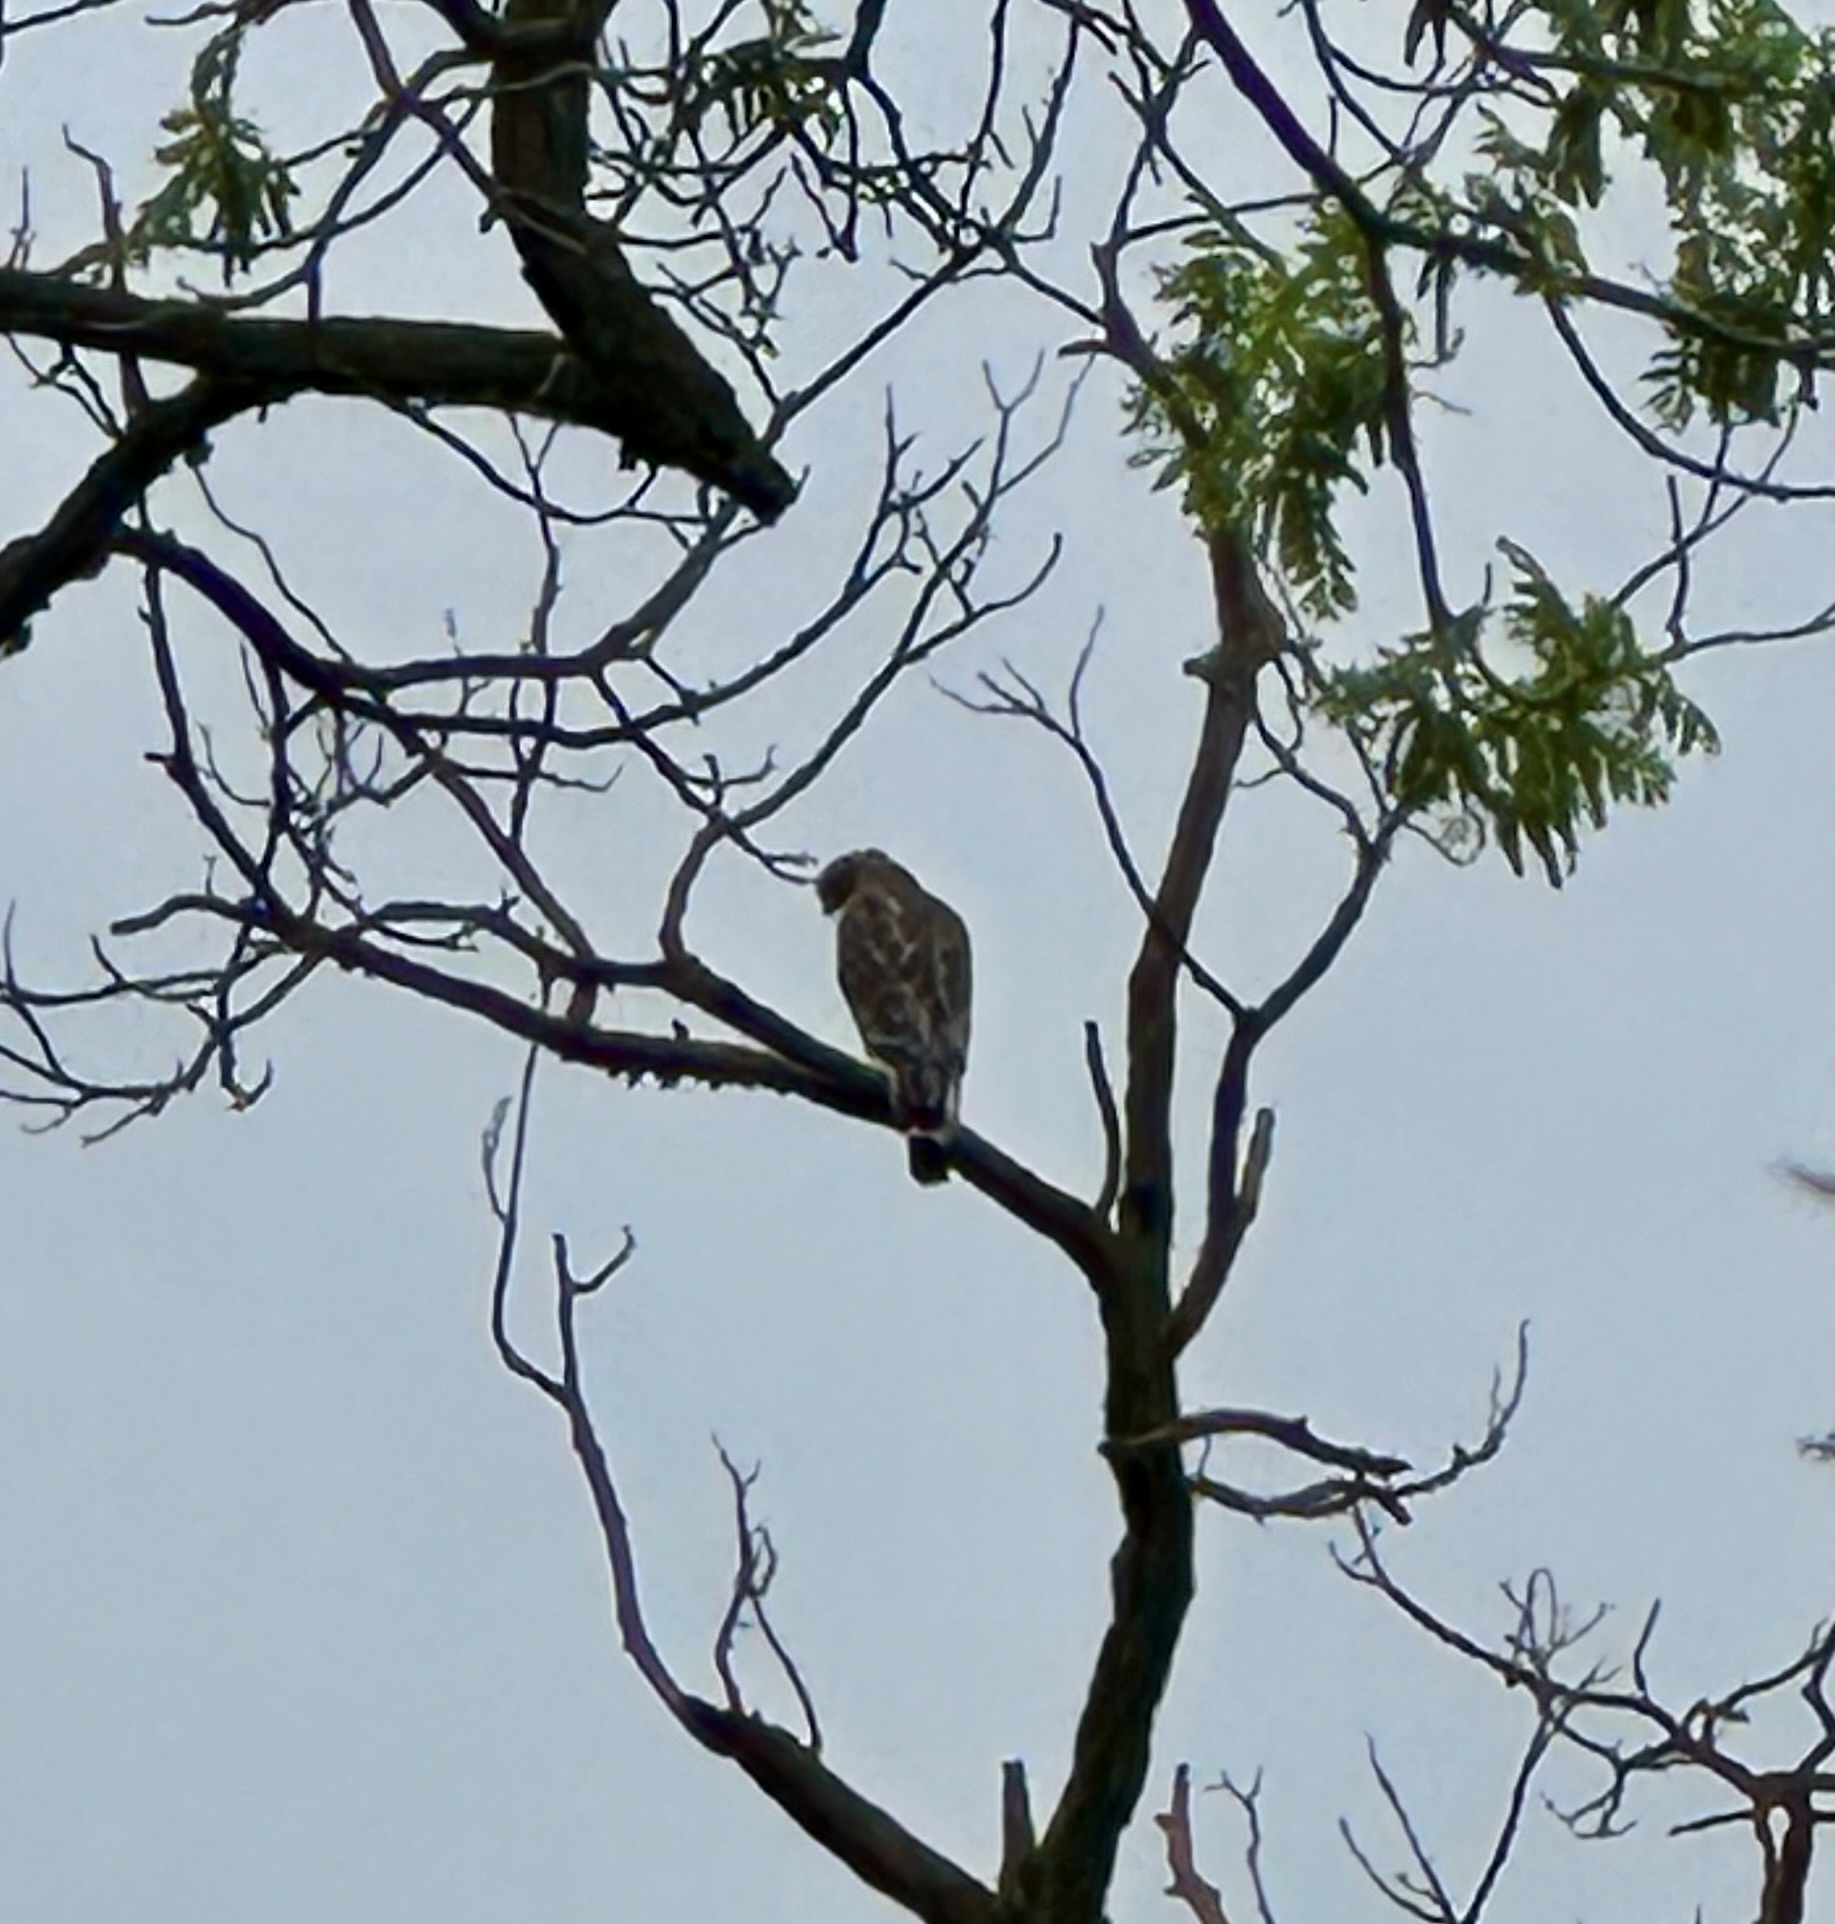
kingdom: Animalia
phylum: Chordata
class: Aves
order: Accipitriformes
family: Accipitridae
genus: Buteo
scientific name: Buteo lineatus
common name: Red-shouldered hawk
